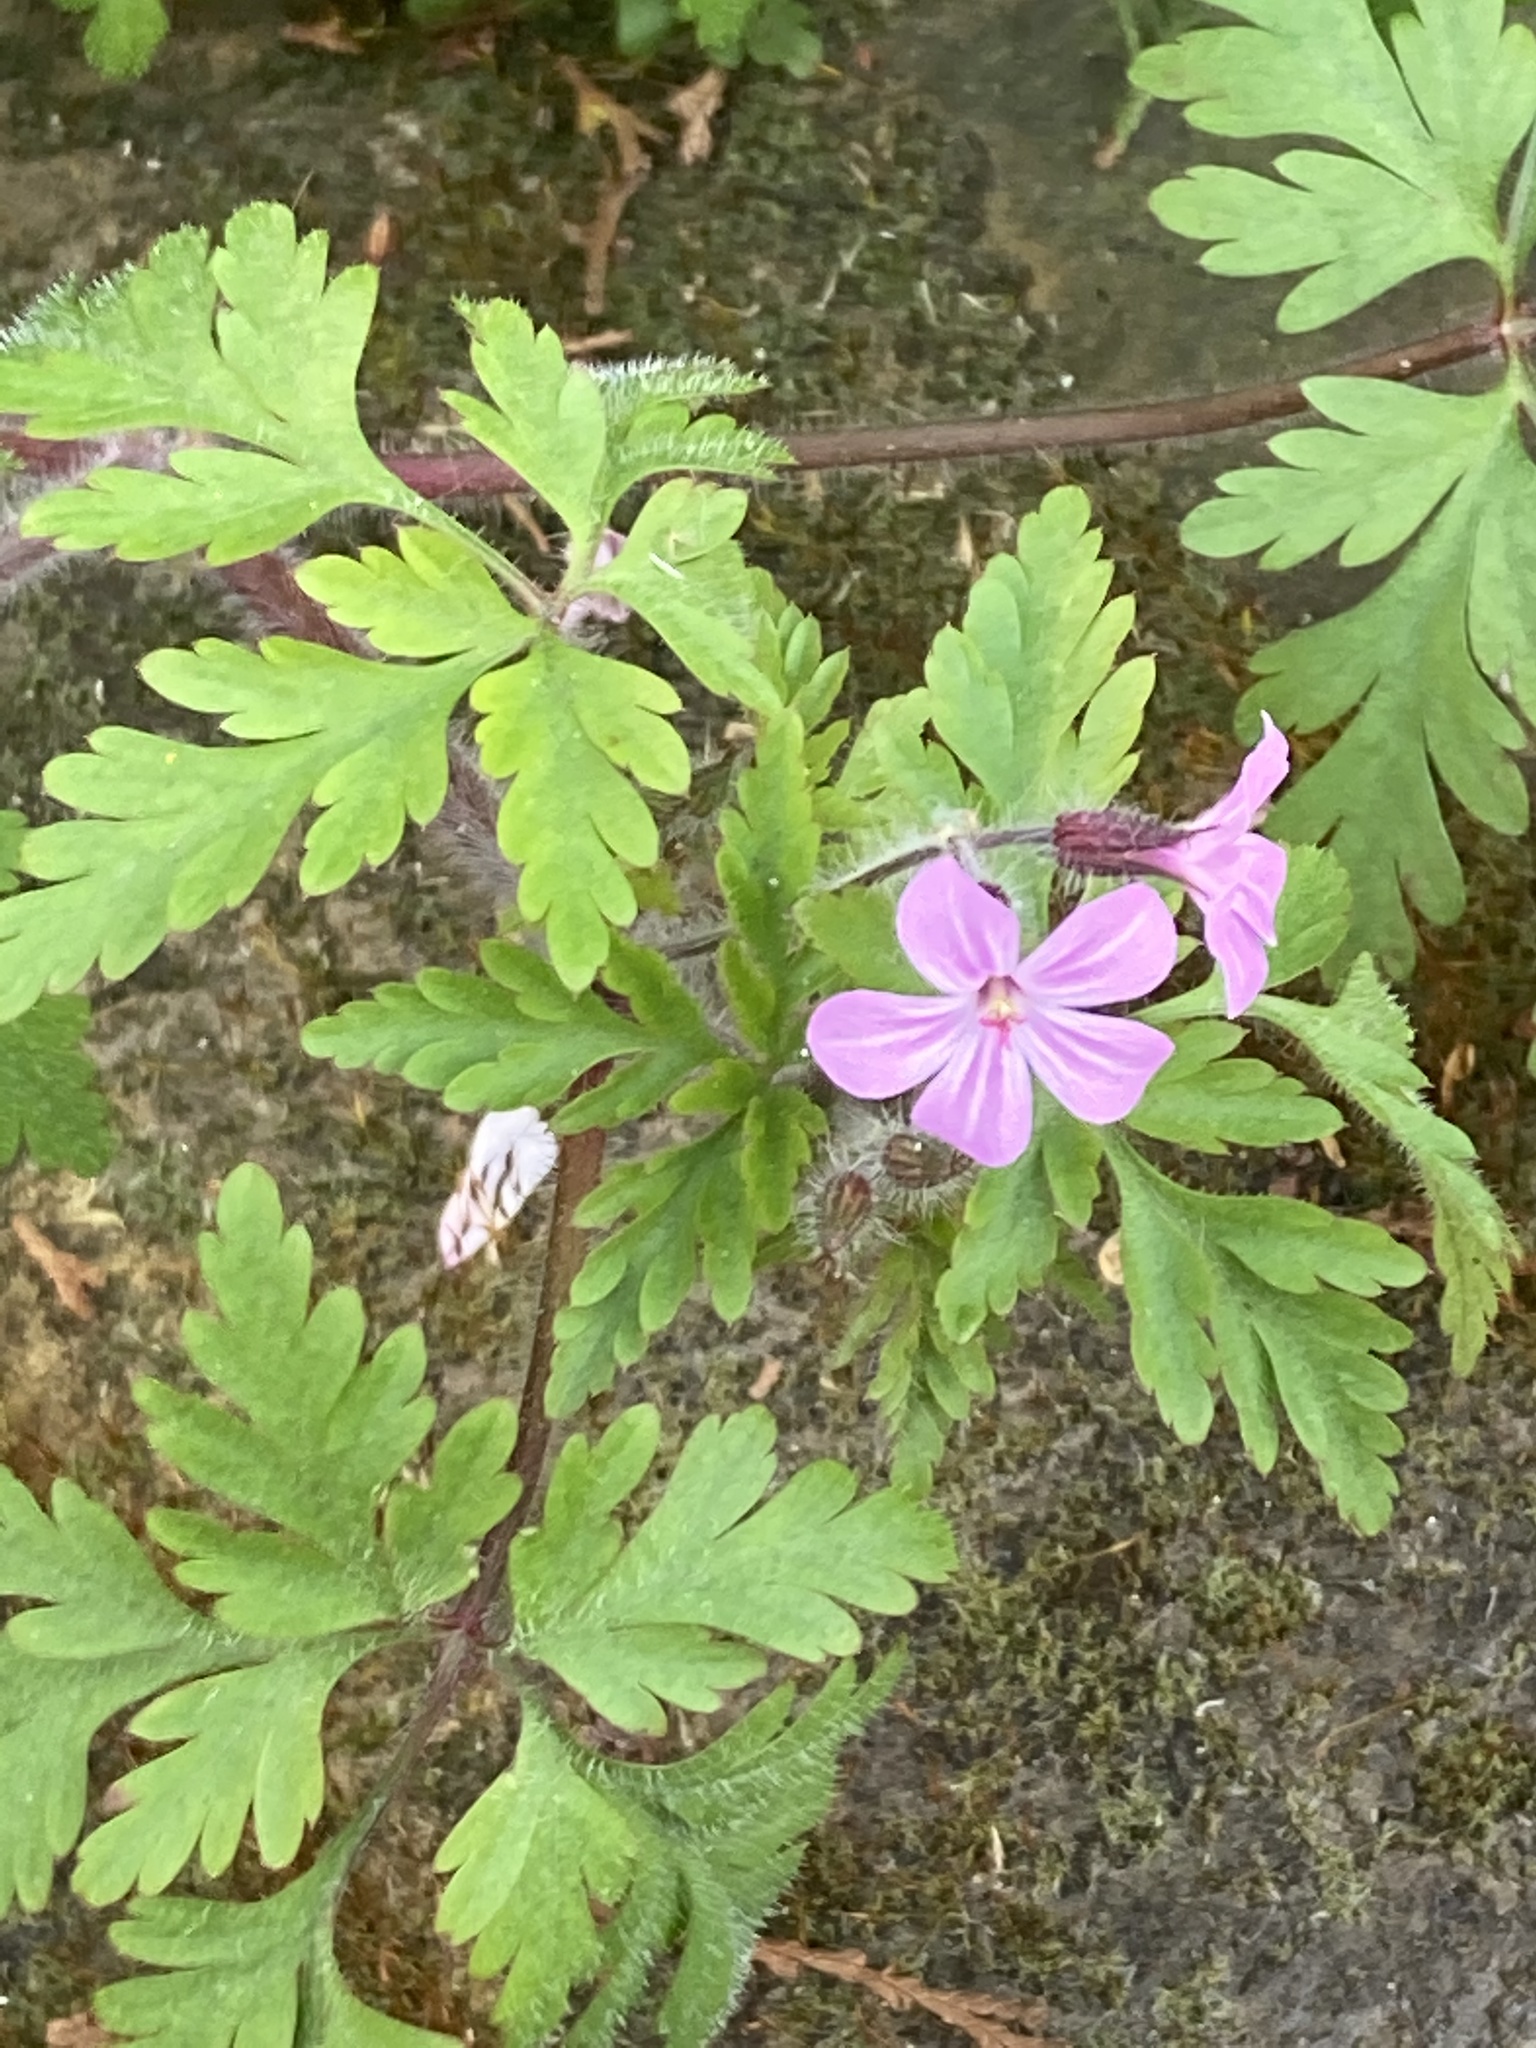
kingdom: Plantae
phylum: Tracheophyta
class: Magnoliopsida
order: Geraniales
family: Geraniaceae
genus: Geranium
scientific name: Geranium robertianum
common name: Herb-robert
